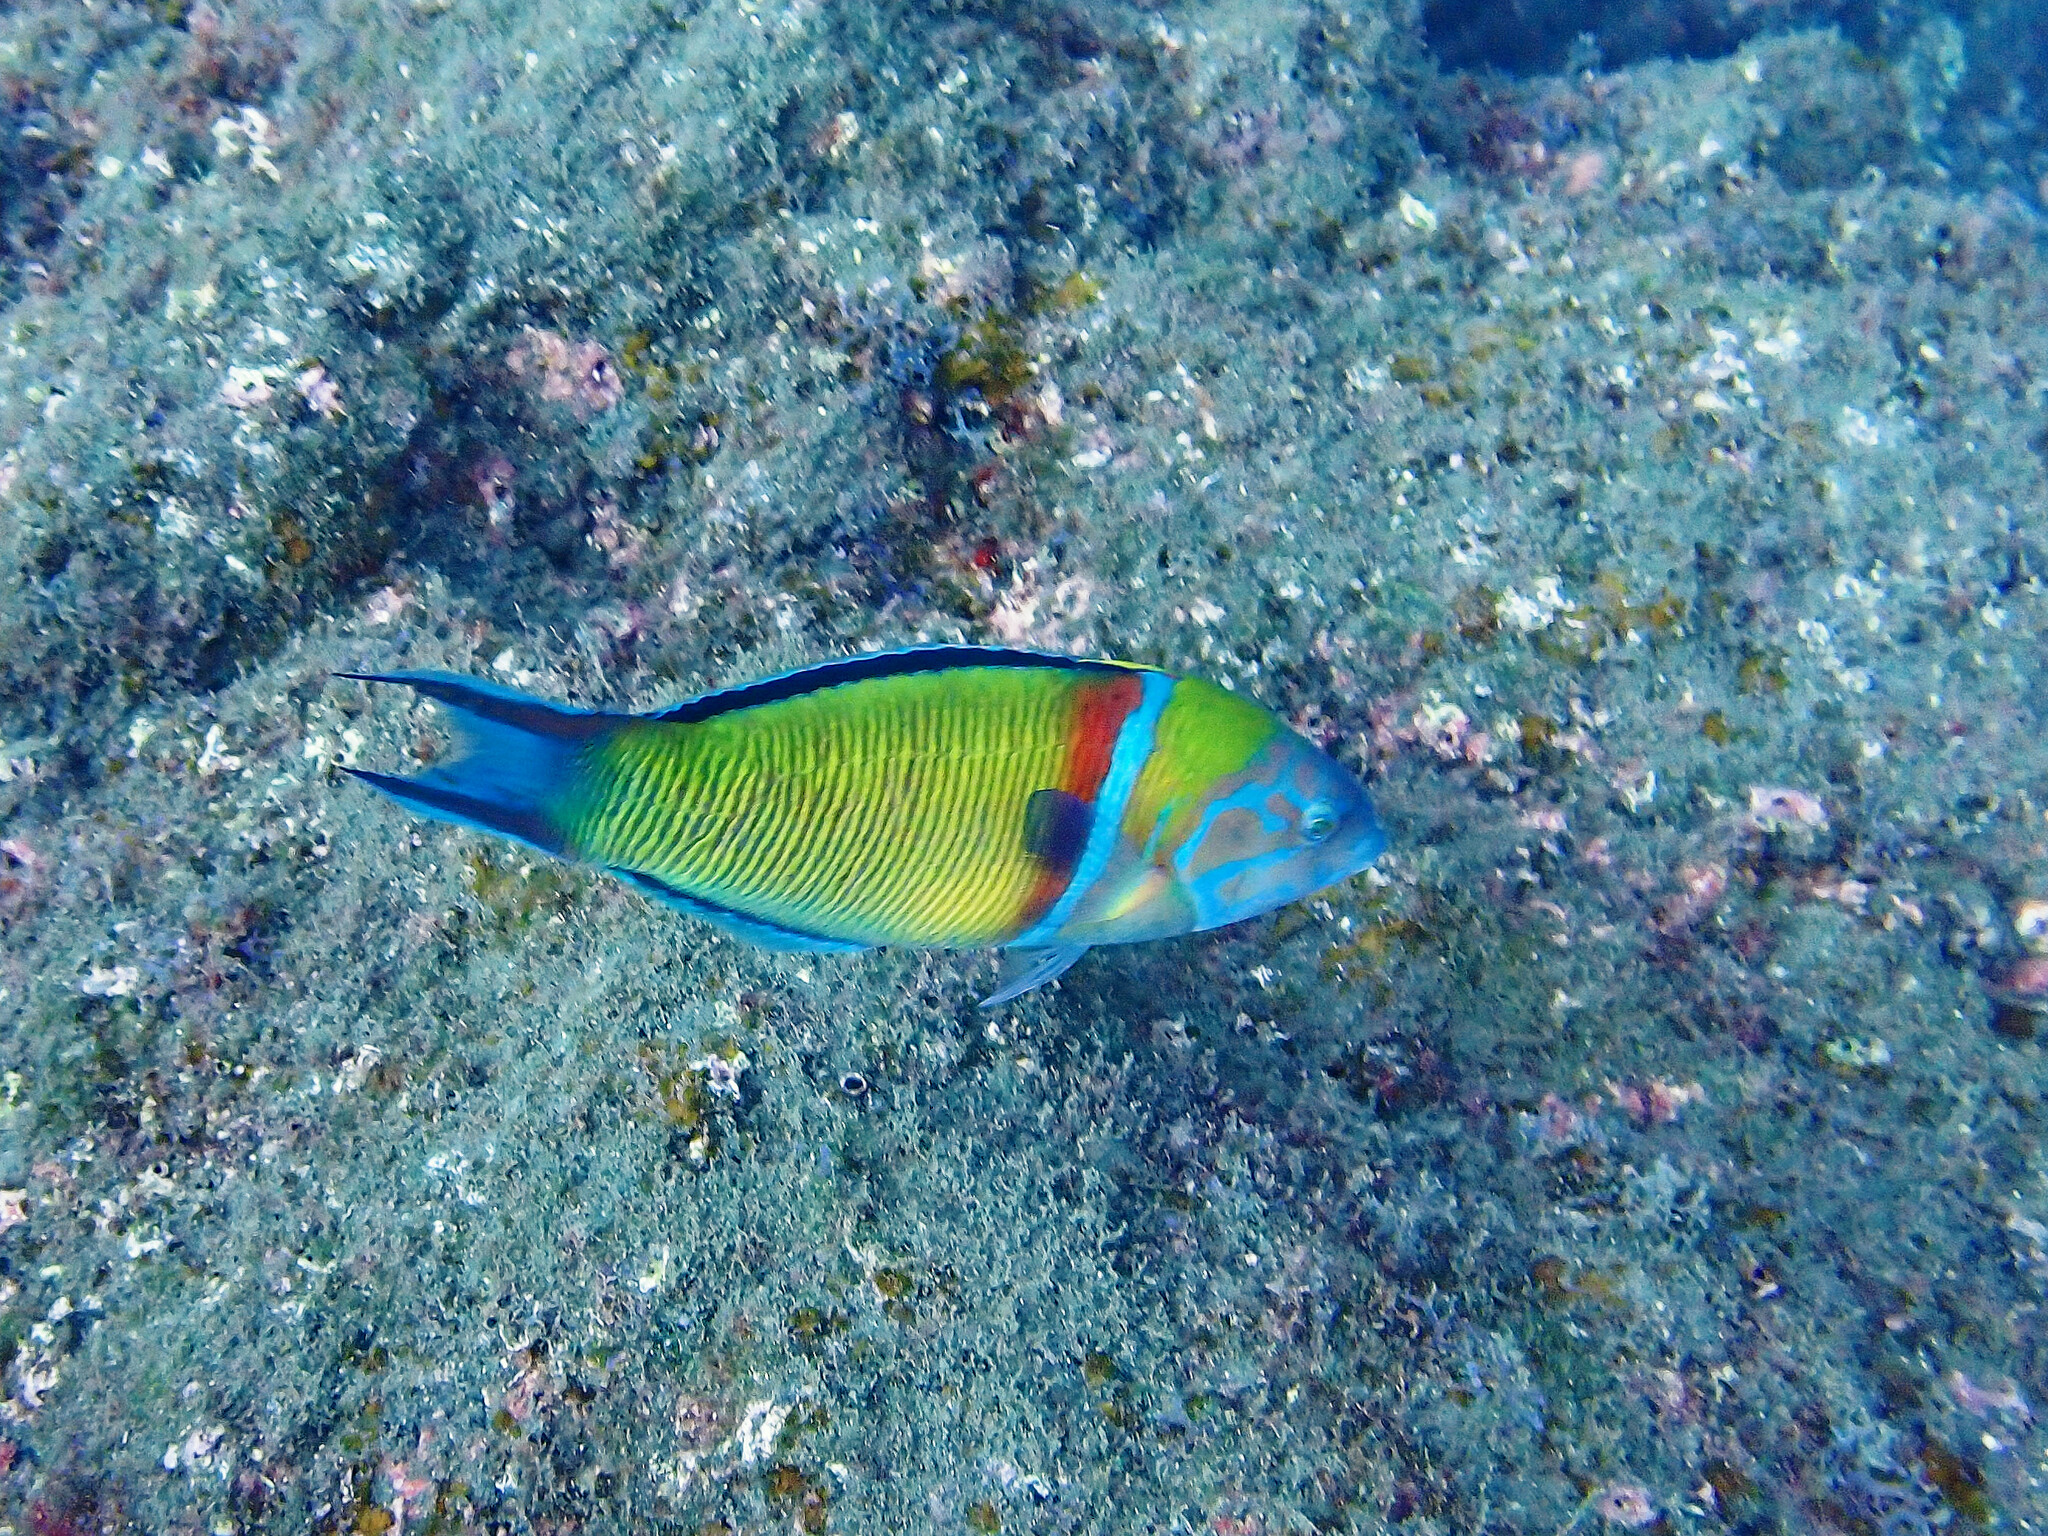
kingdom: Animalia
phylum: Chordata
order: Perciformes
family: Labridae
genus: Thalassoma
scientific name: Thalassoma pavo
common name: Ornate wrasse
